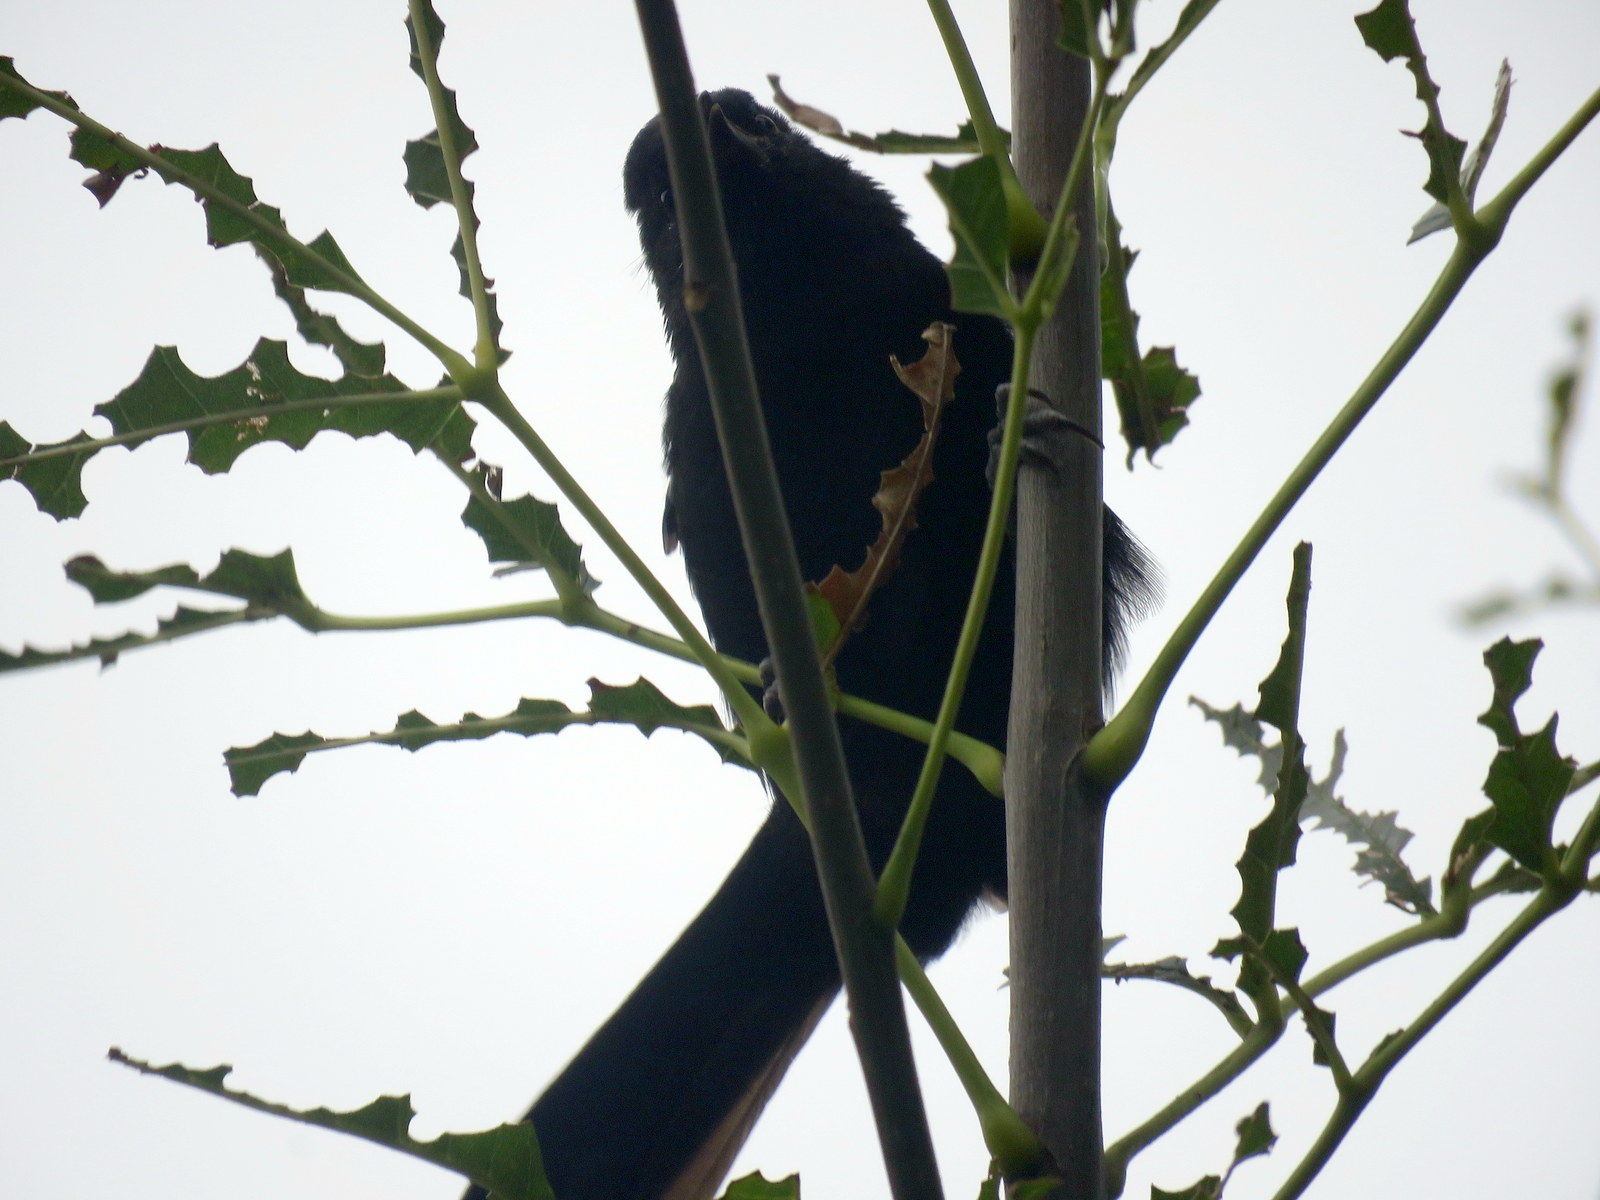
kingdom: Animalia
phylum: Chordata
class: Aves
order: Passeriformes
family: Icteridae
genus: Icterus
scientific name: Icterus cayanensis
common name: Epaulet oriole
